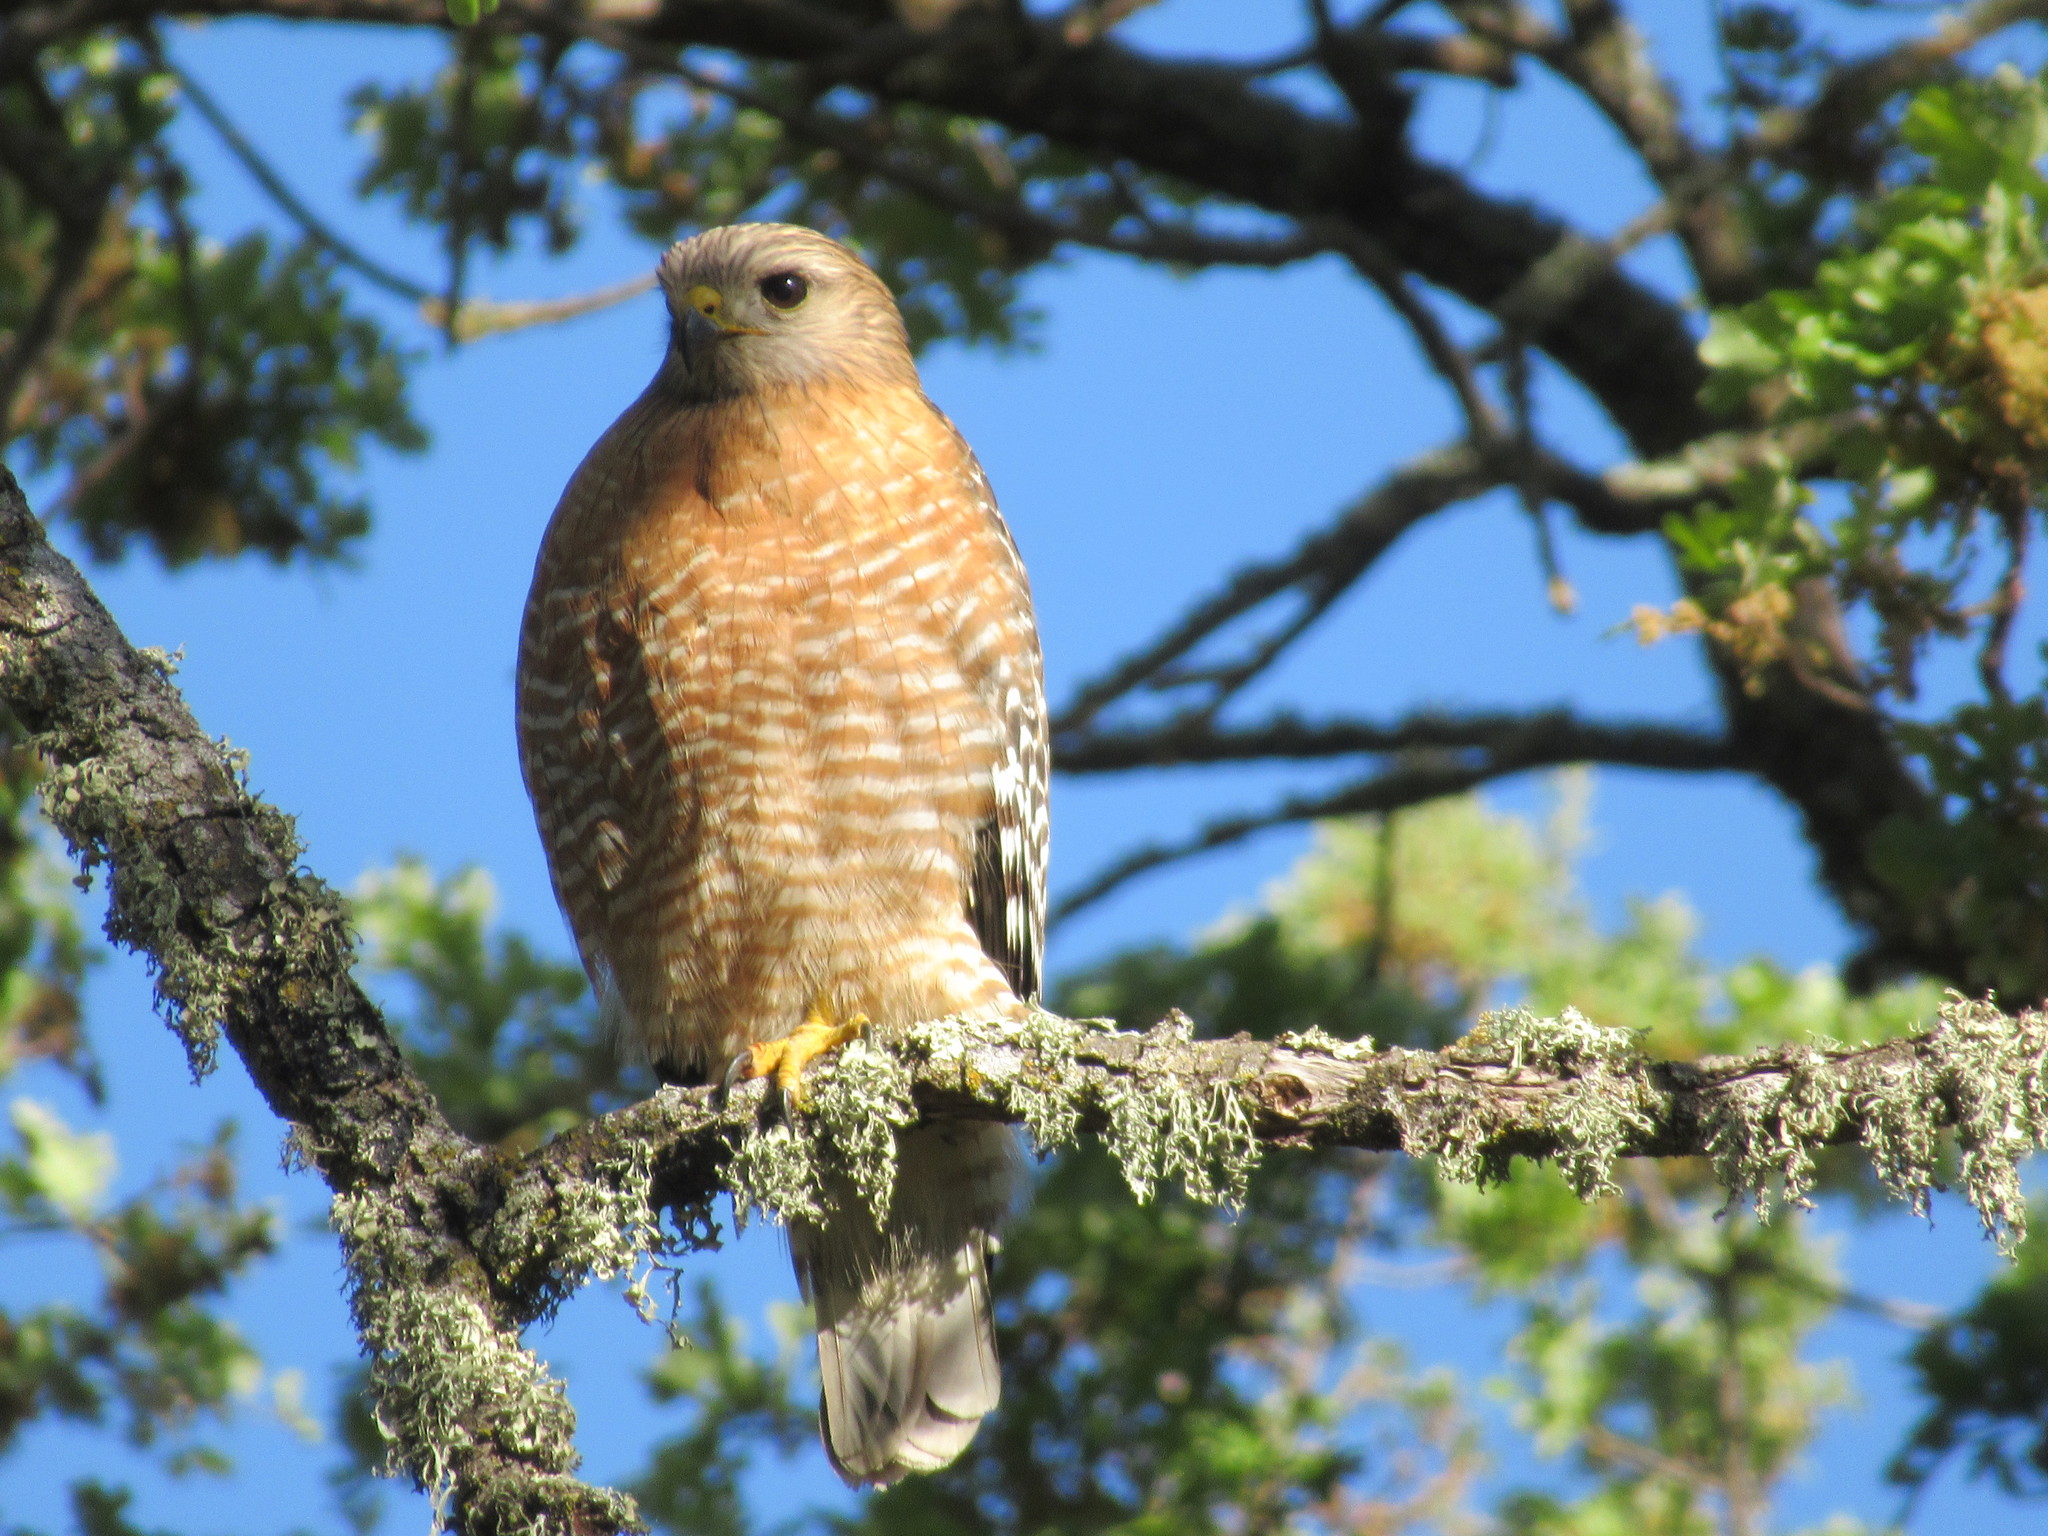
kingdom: Animalia
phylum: Chordata
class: Aves
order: Accipitriformes
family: Accipitridae
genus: Buteo
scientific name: Buteo lineatus
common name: Red-shouldered hawk
